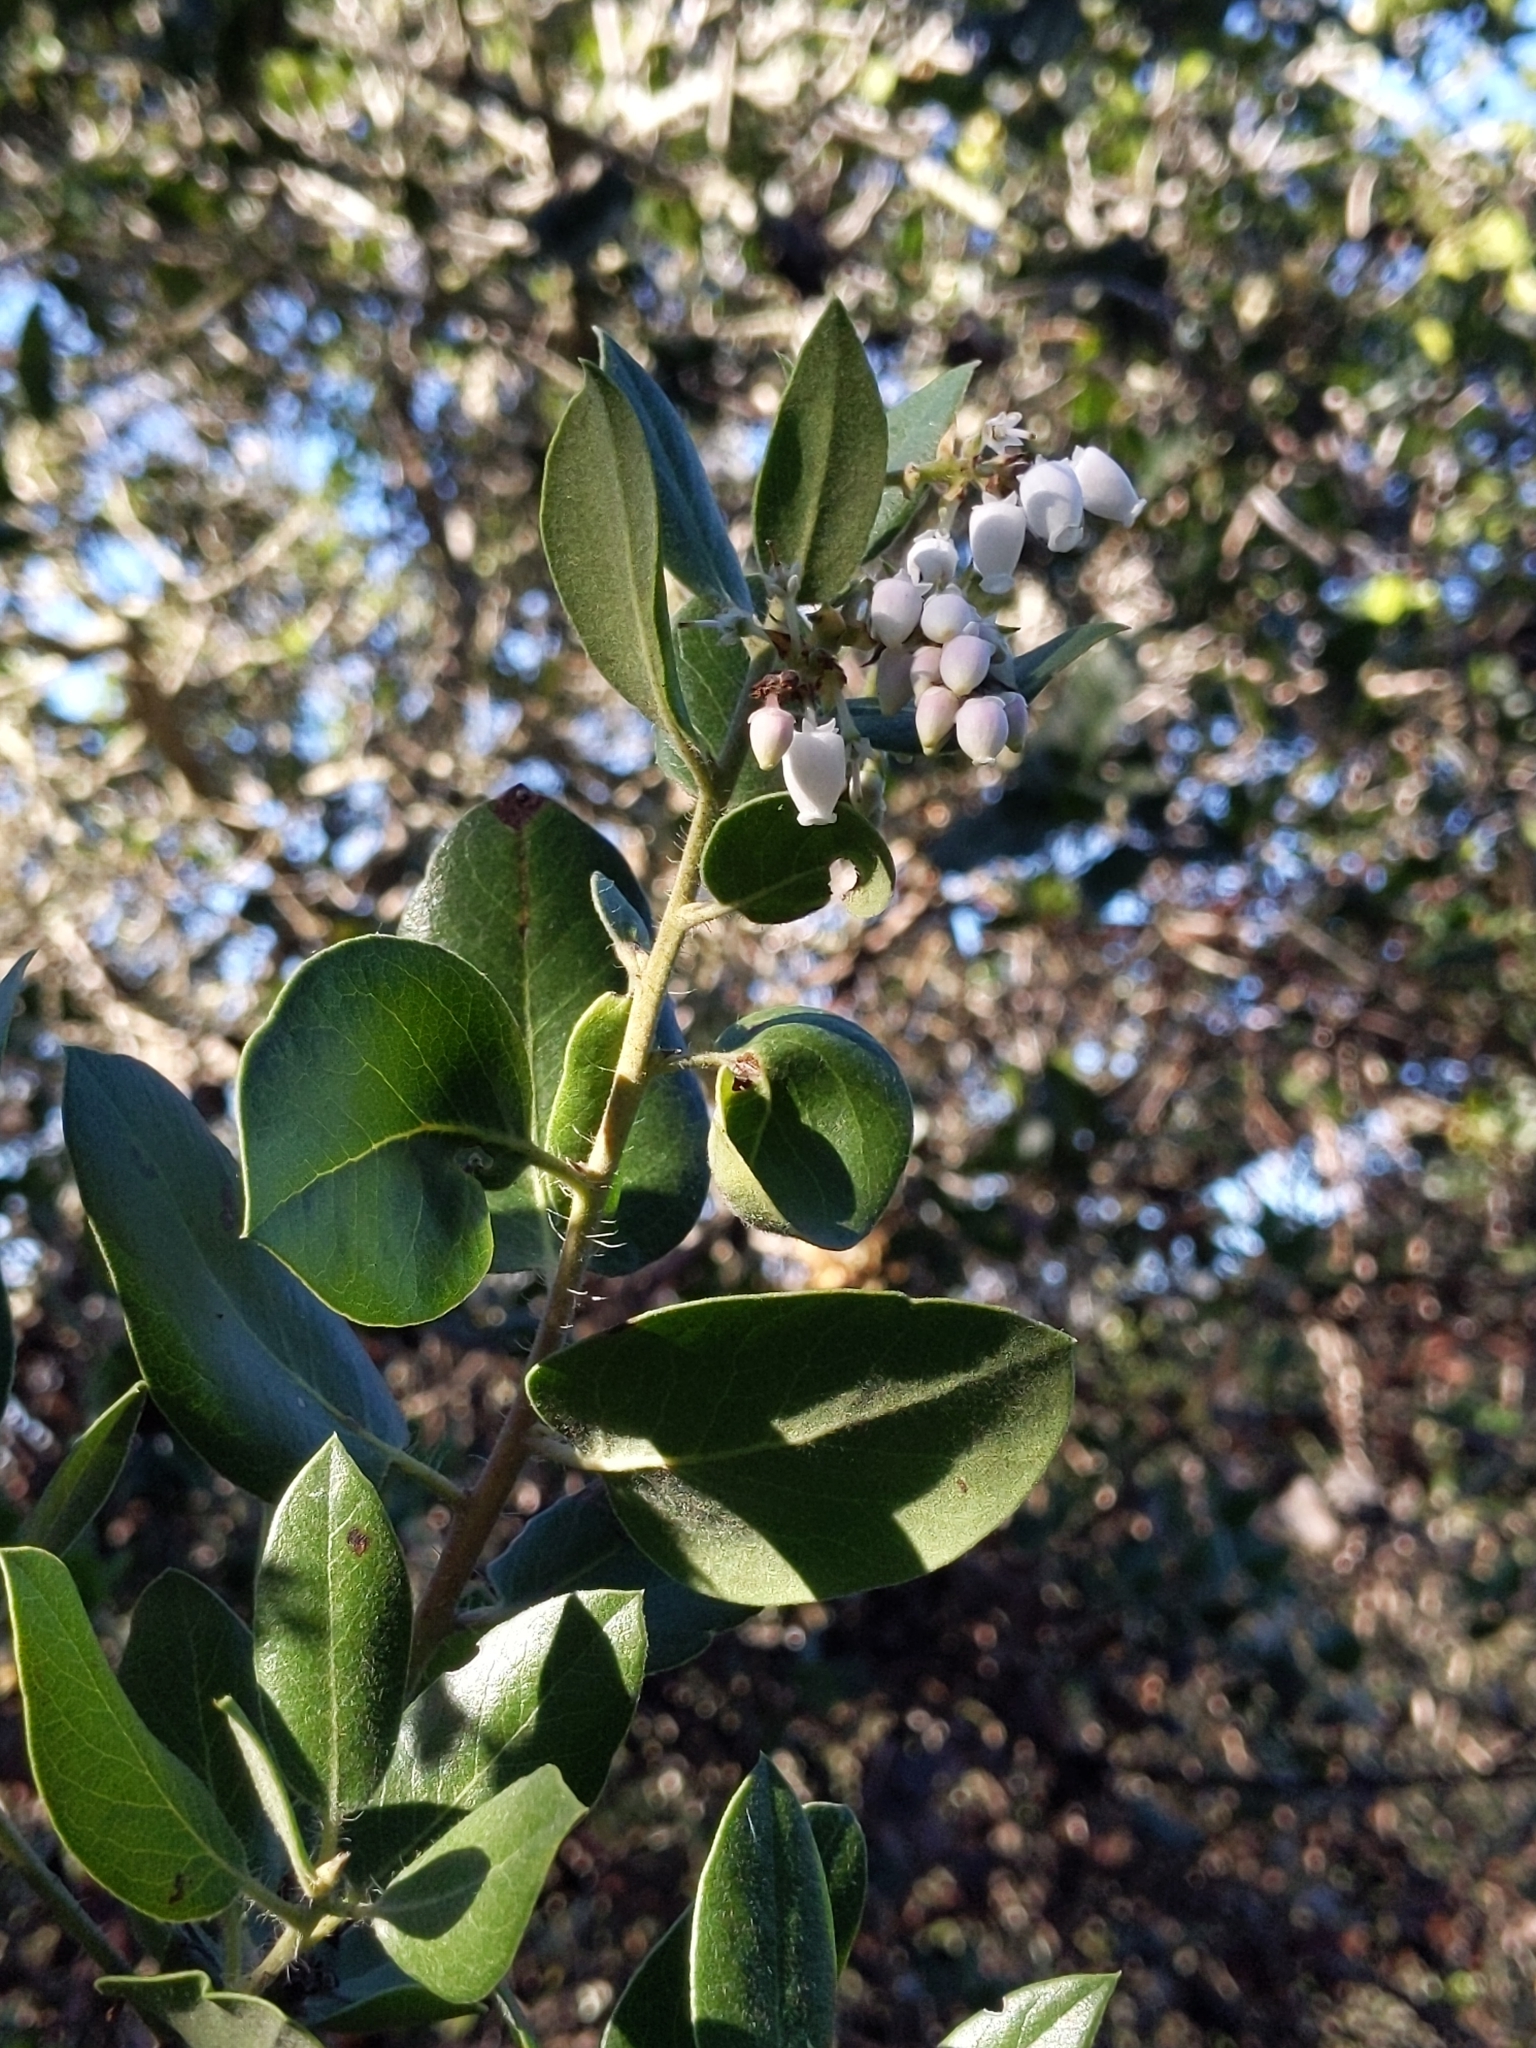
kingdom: Plantae
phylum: Tracheophyta
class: Magnoliopsida
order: Ericales
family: Ericaceae
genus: Arctostaphylos
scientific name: Arctostaphylos crustacea
